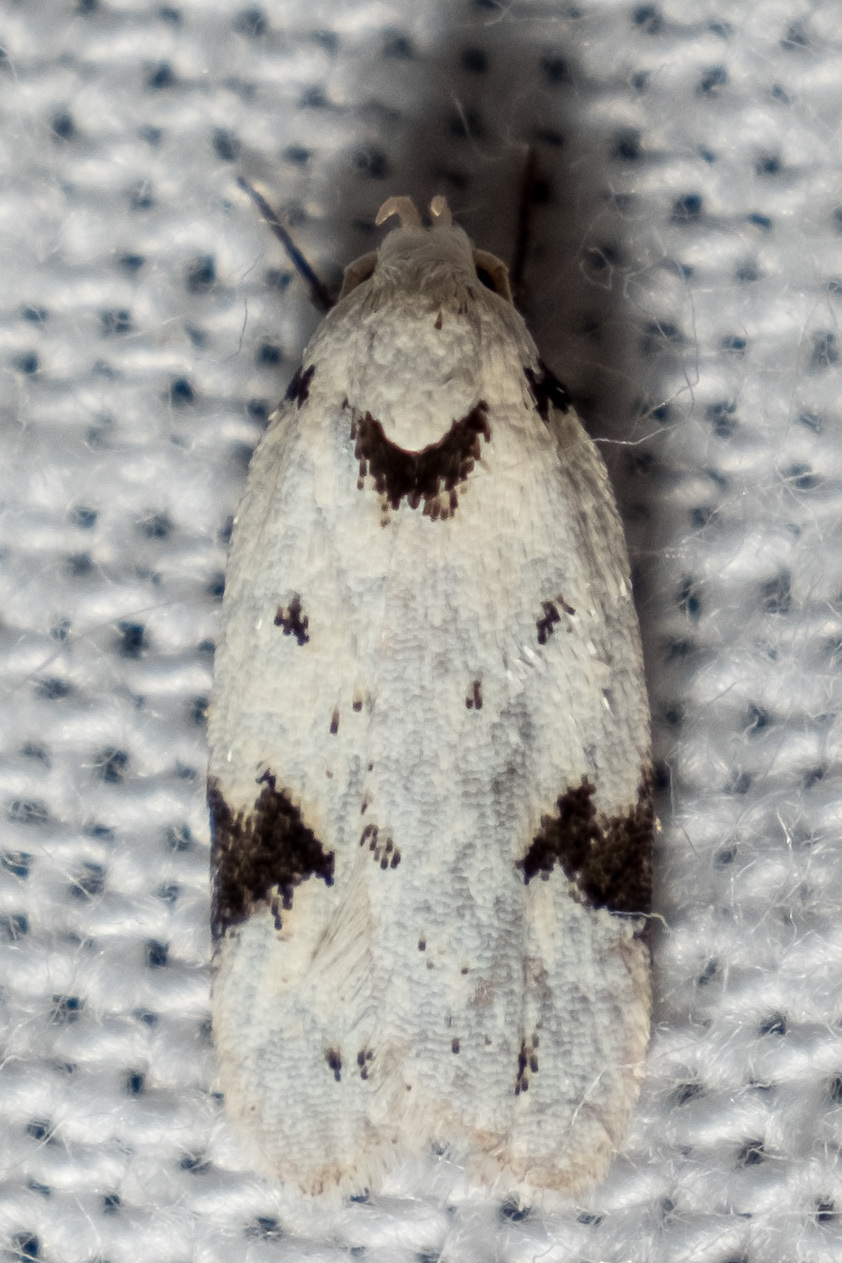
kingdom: Animalia
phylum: Arthropoda
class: Insecta
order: Lepidoptera
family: Oecophoridae
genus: Inga
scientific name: Inga sparsiciliella
